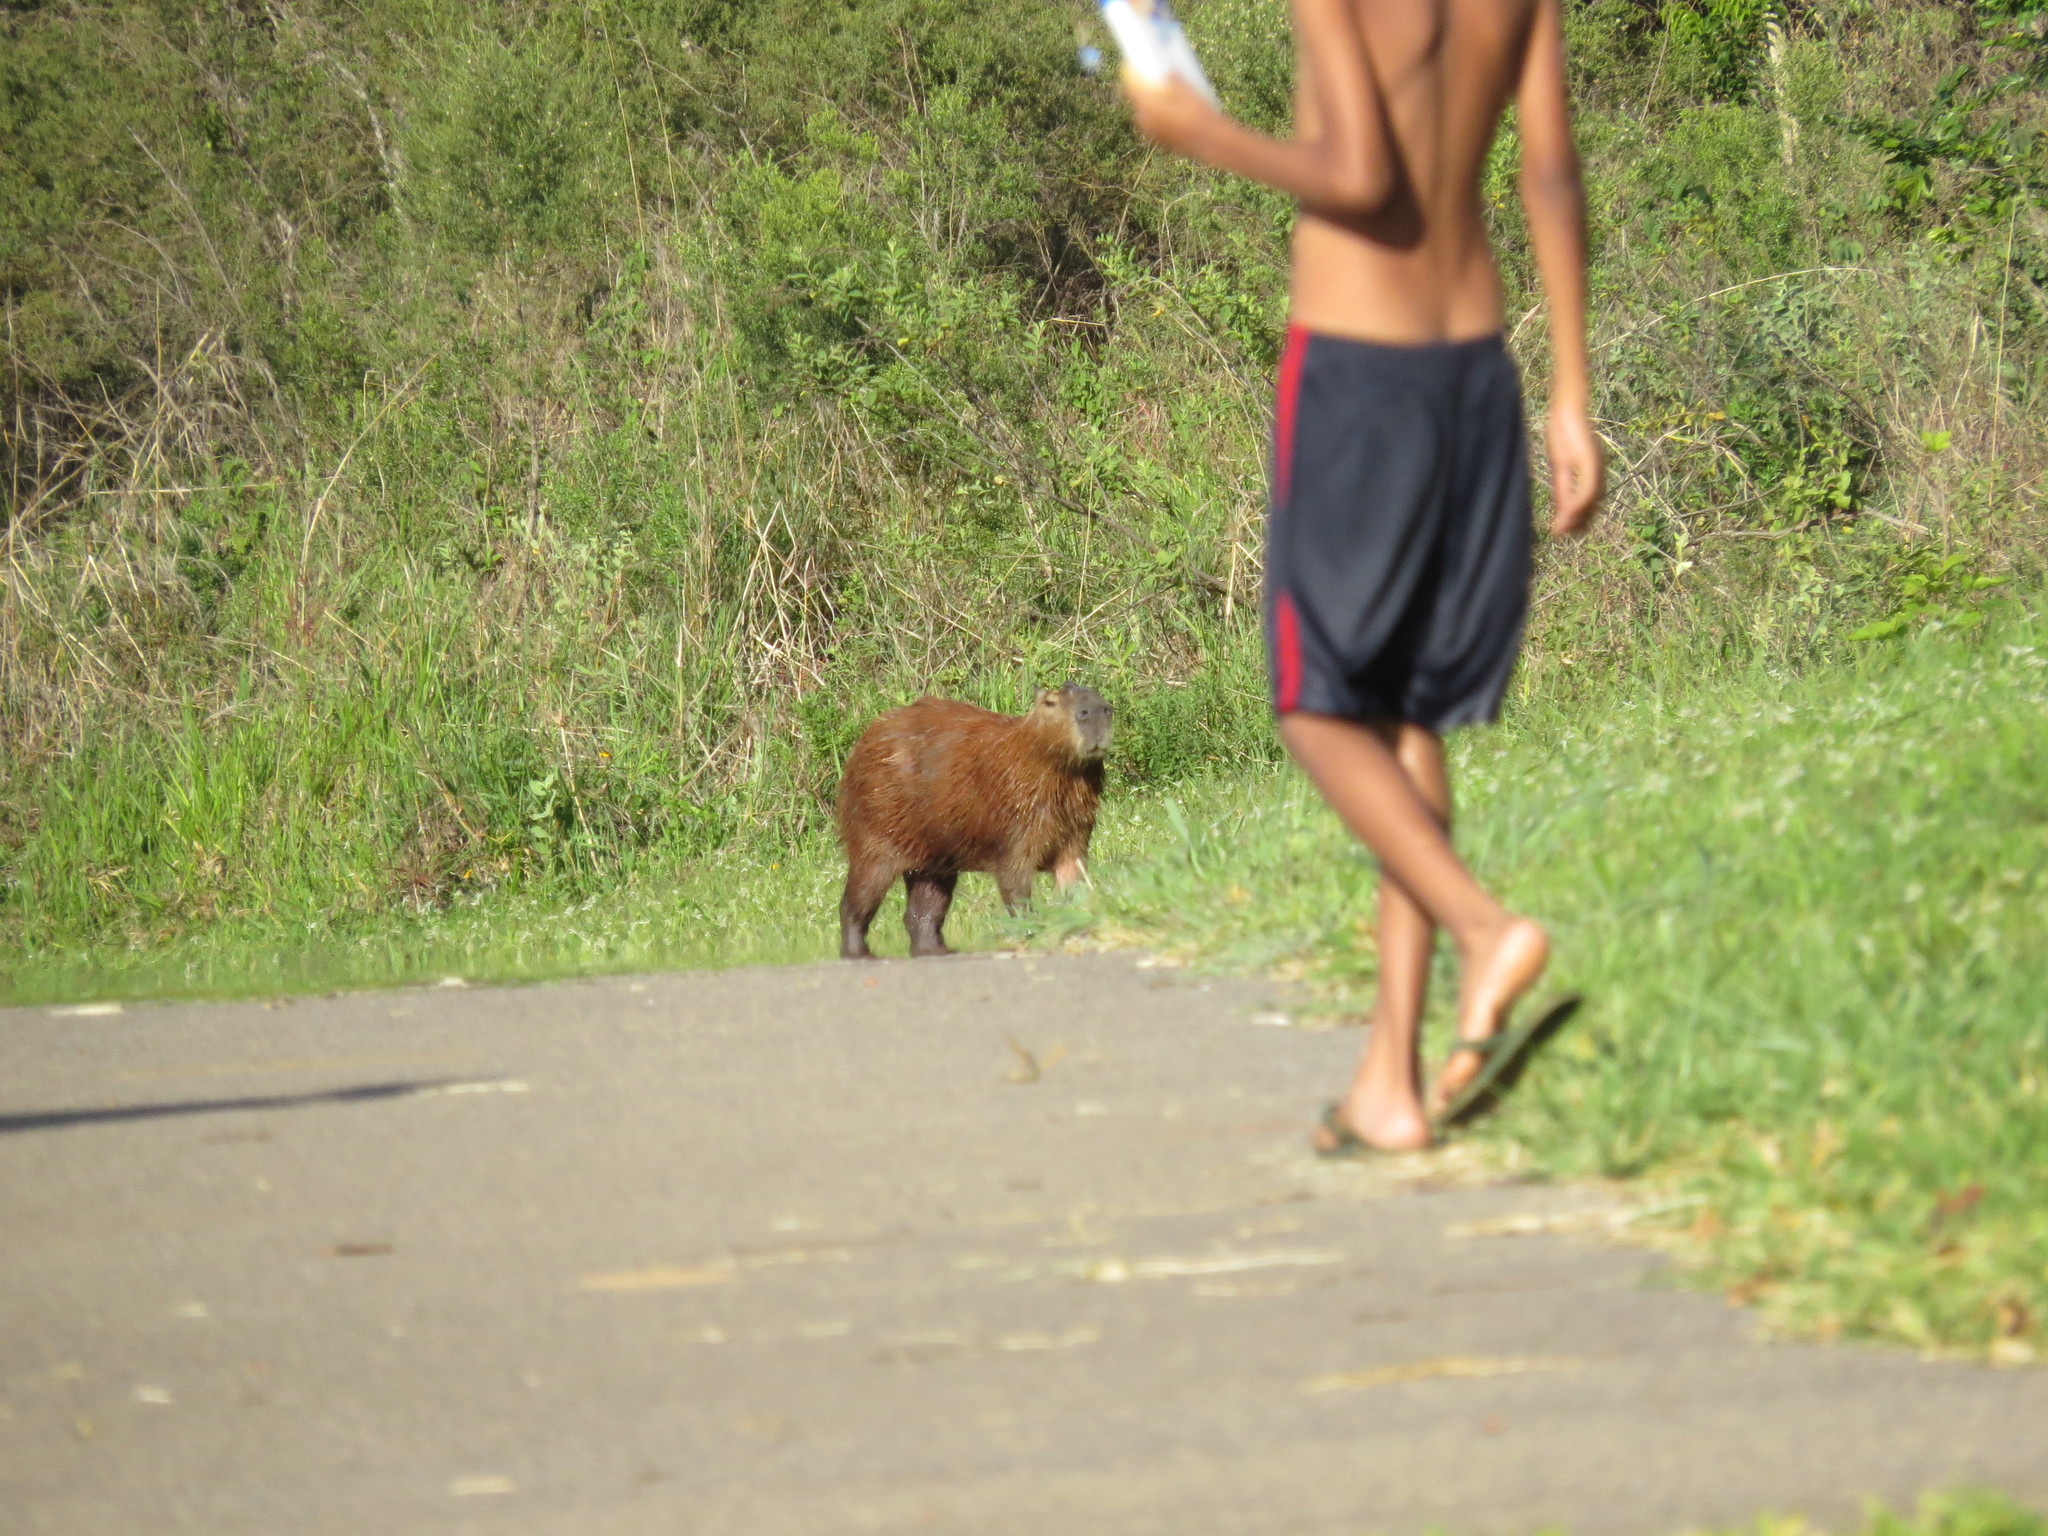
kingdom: Animalia
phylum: Chordata
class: Mammalia
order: Rodentia
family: Caviidae
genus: Hydrochoerus
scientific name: Hydrochoerus hydrochaeris
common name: Capybara
